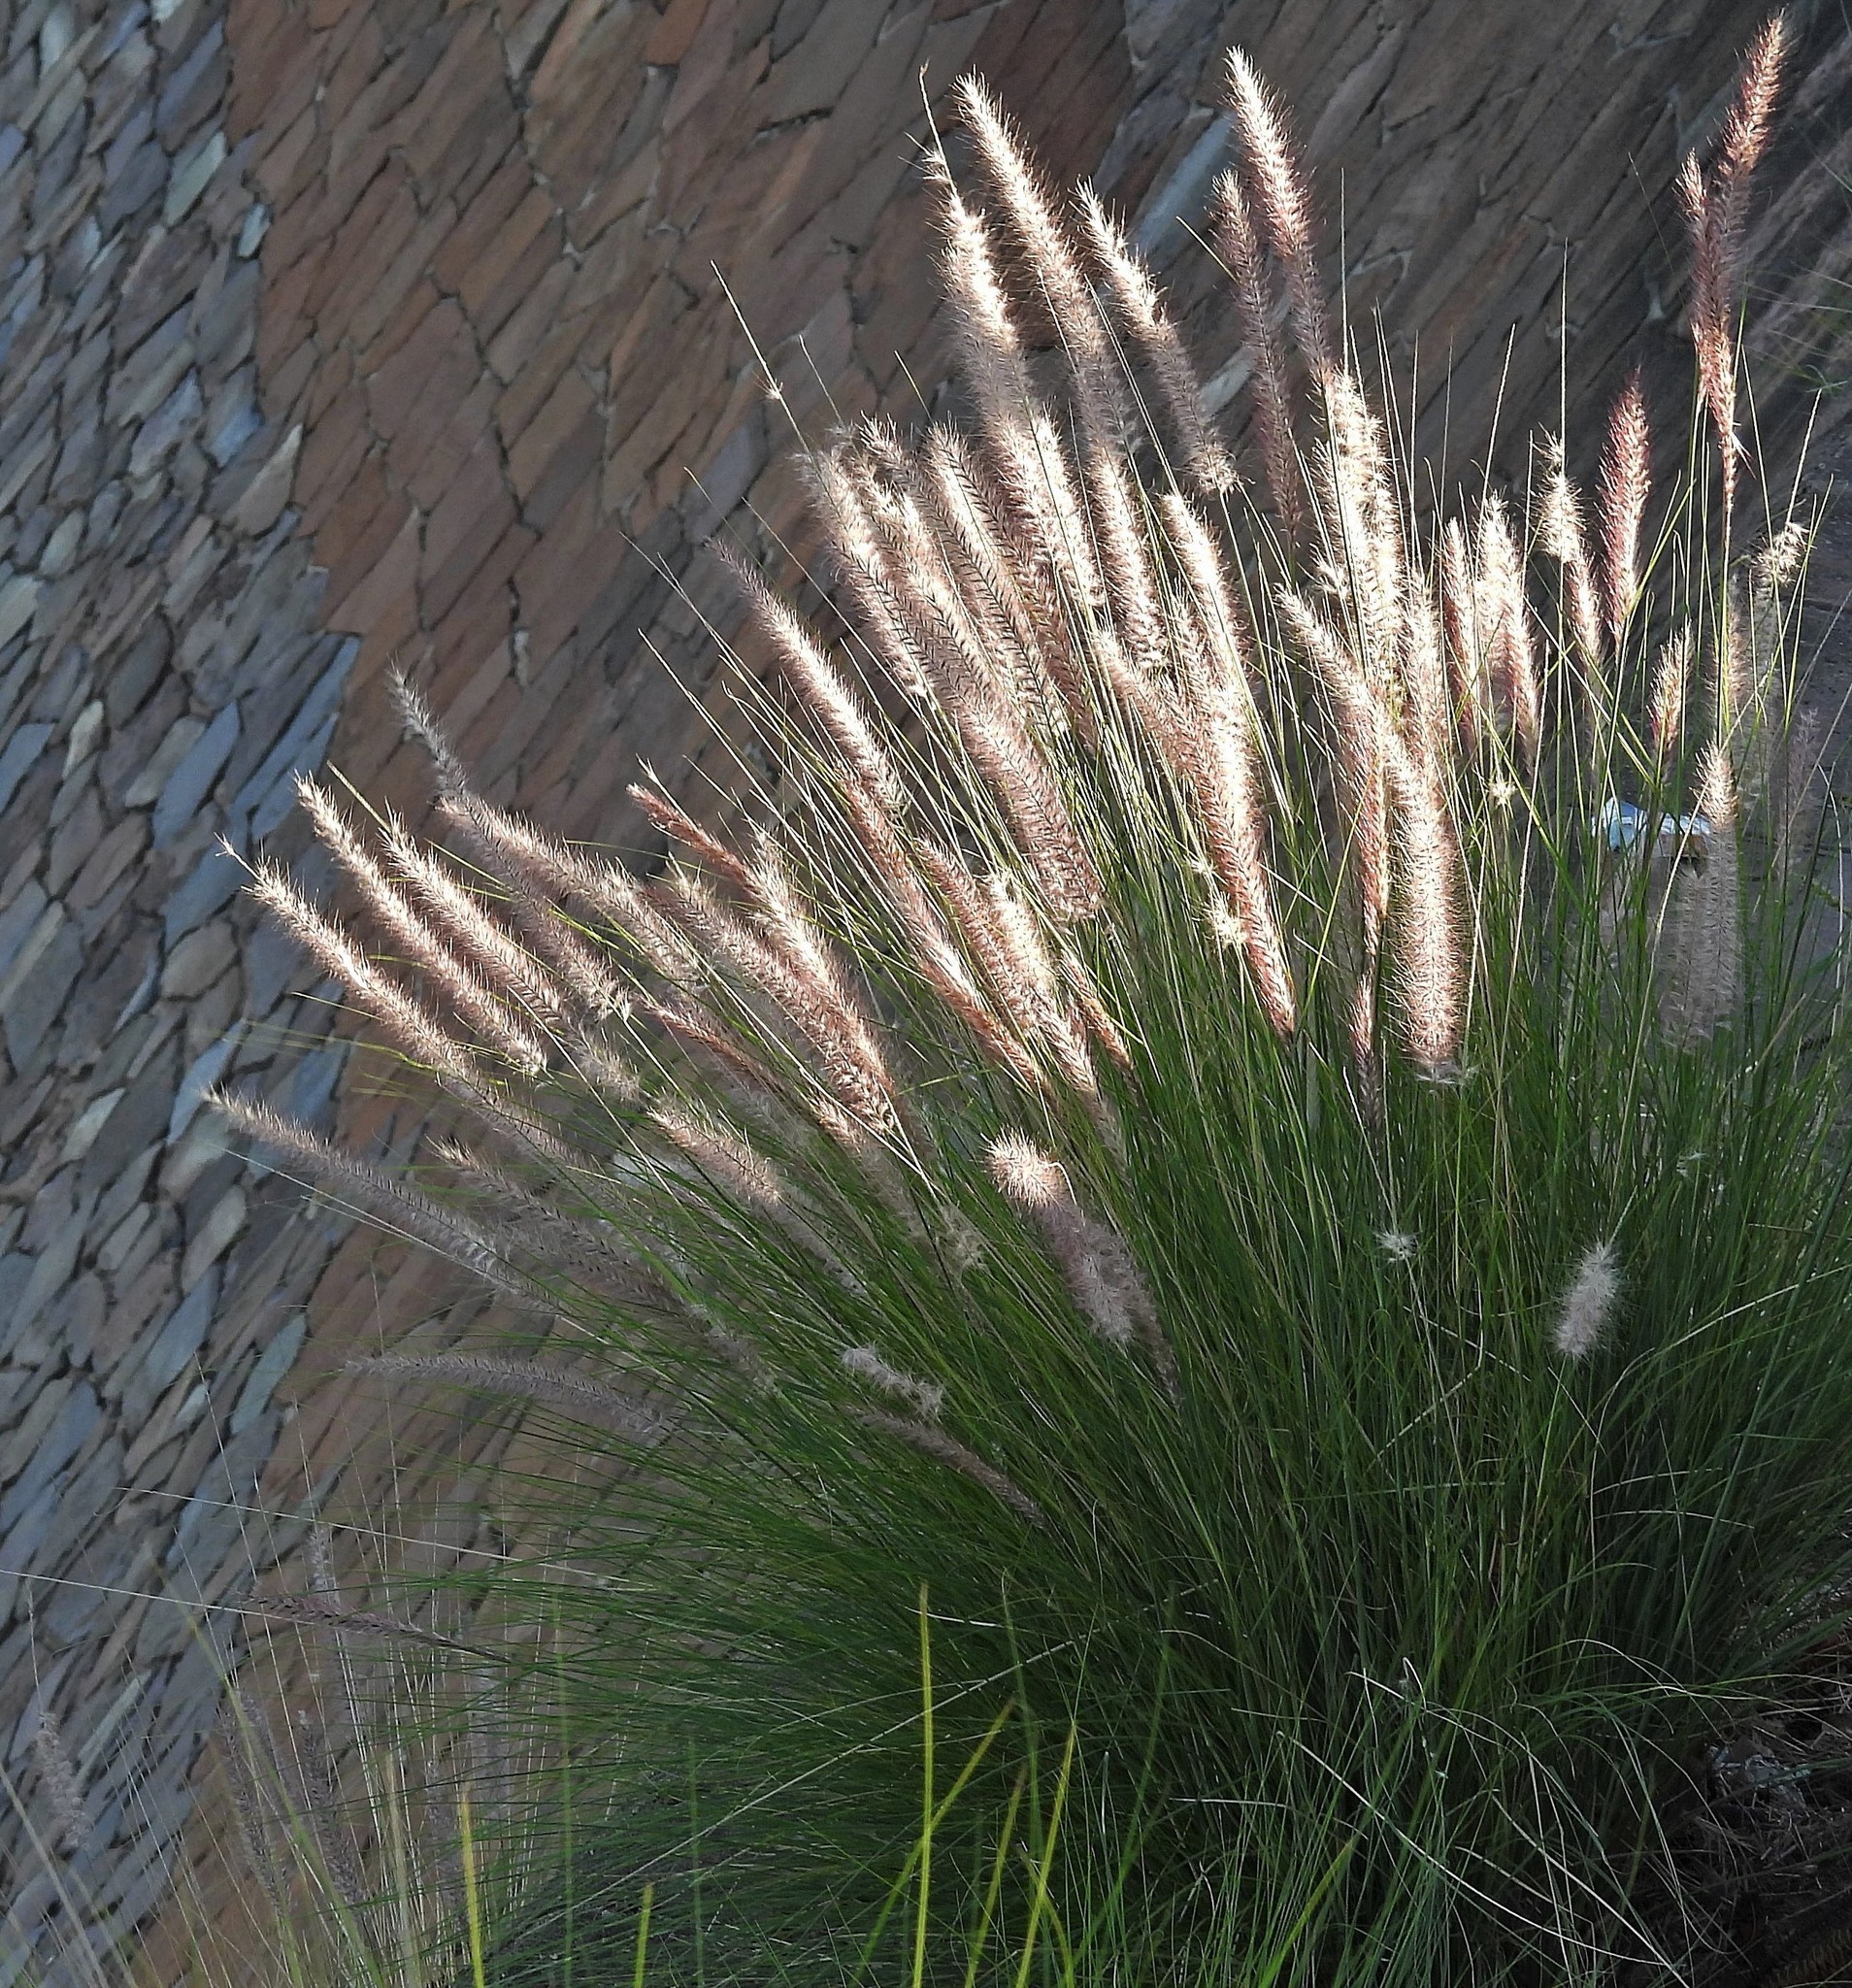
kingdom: Plantae
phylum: Tracheophyta
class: Liliopsida
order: Poales
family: Poaceae
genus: Cenchrus
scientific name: Cenchrus setaceus
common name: Crimson fountaingrass
